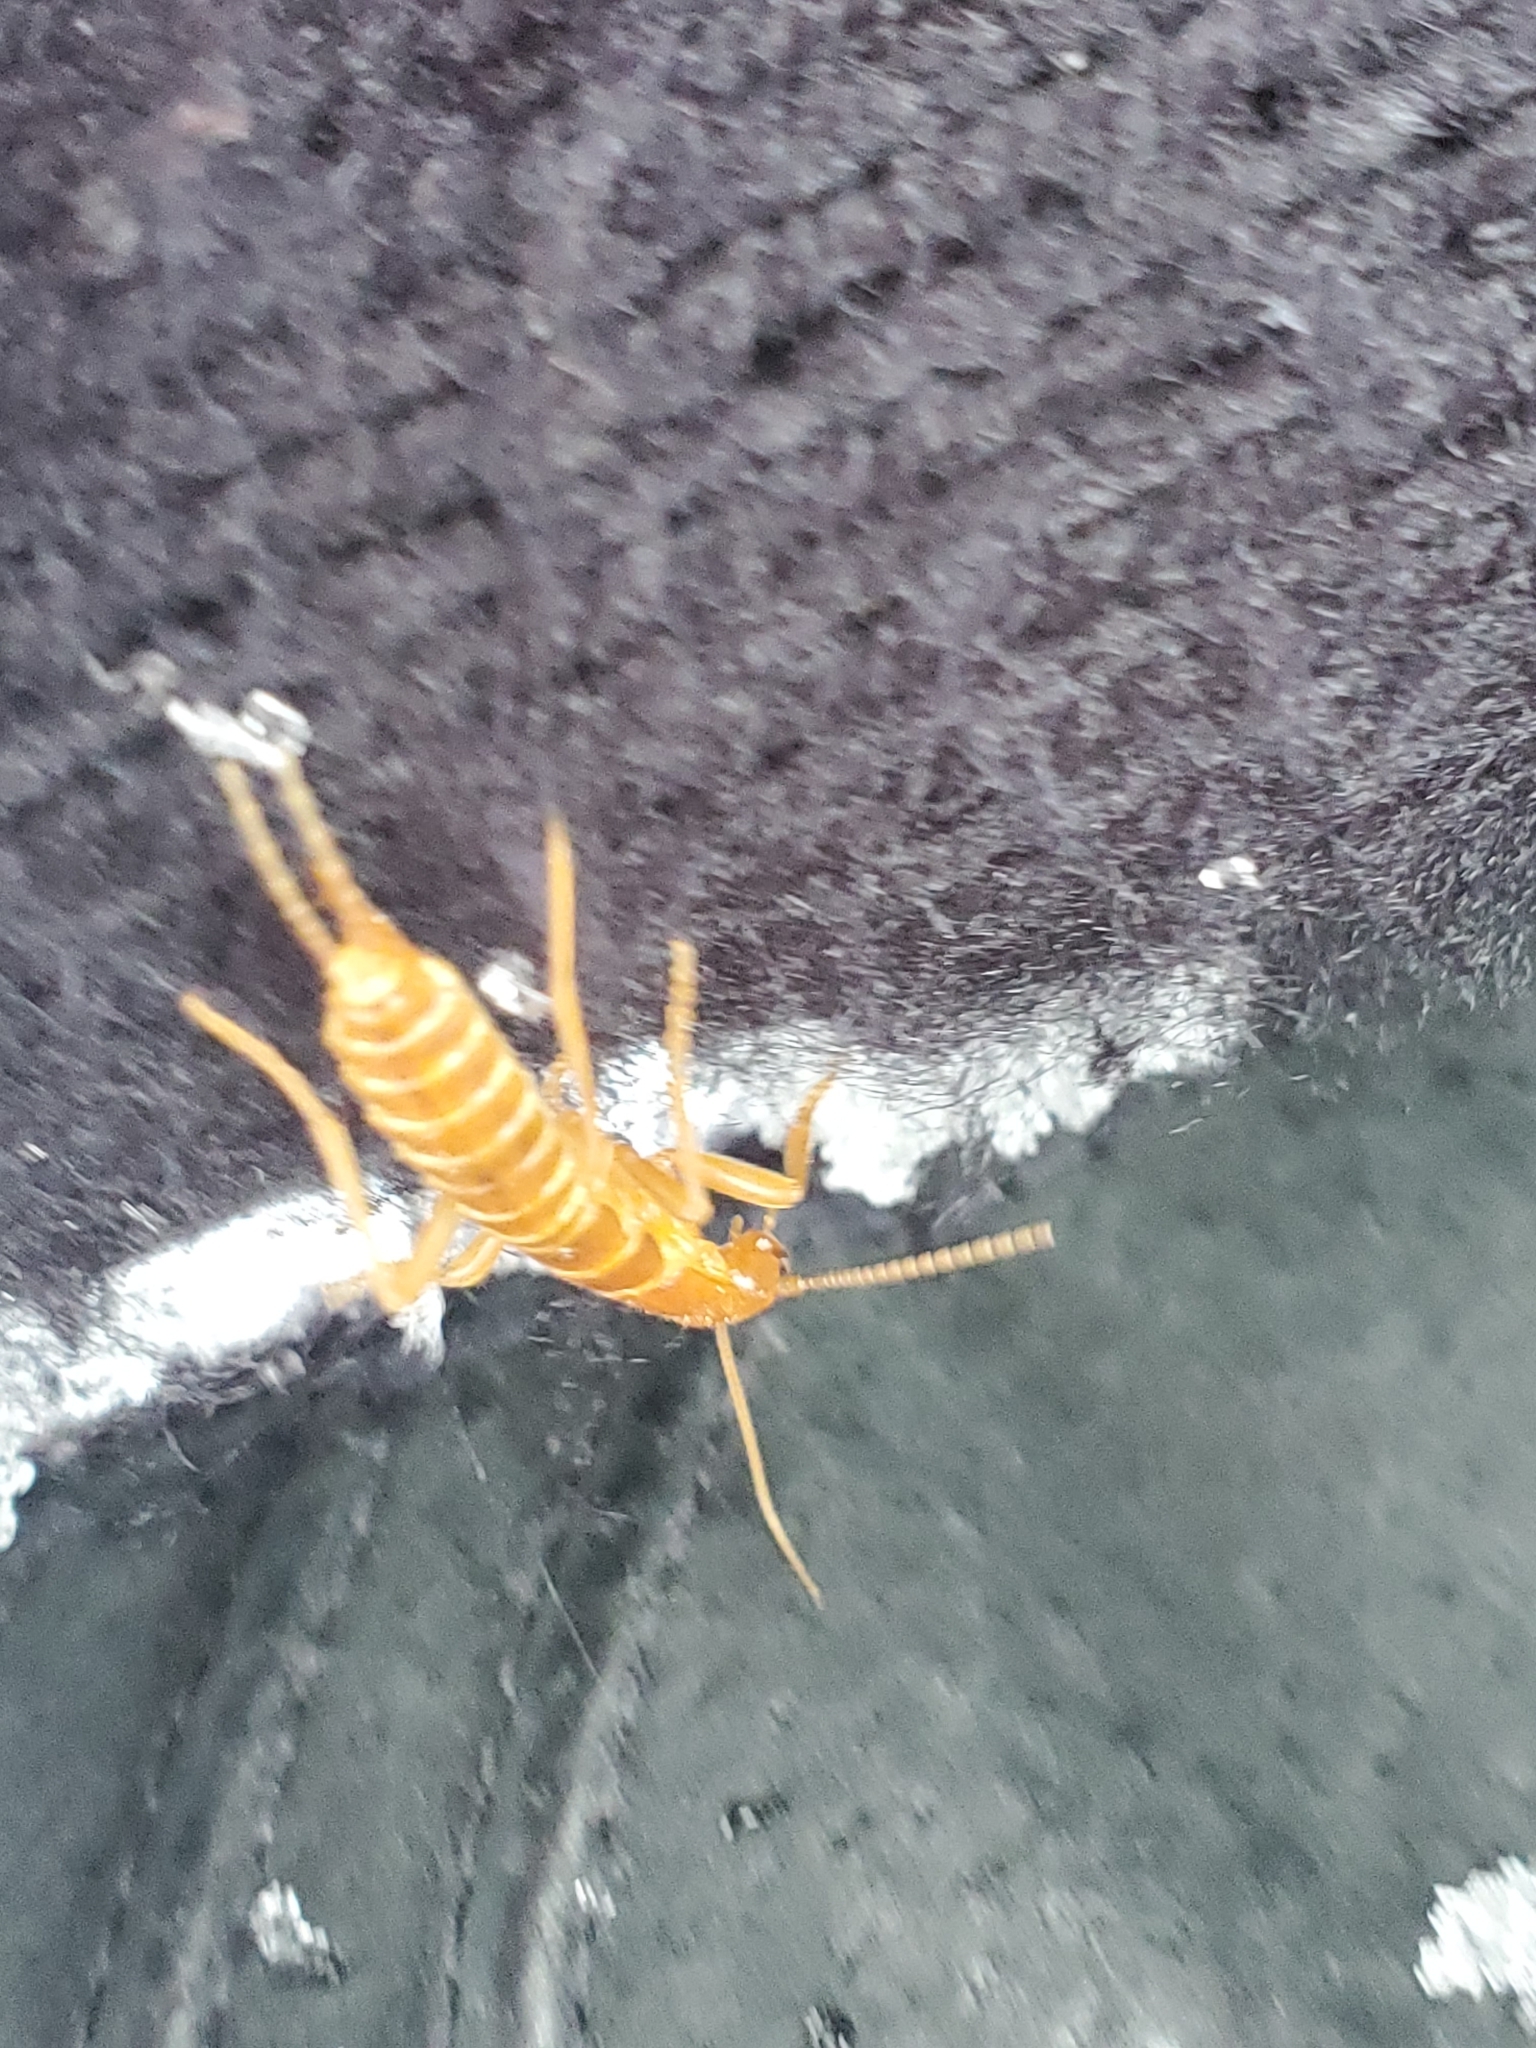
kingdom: Animalia
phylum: Arthropoda
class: Insecta
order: Grylloblattodea
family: Grylloblattidae
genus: Grylloblatta
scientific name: Grylloblatta campodeiformis
